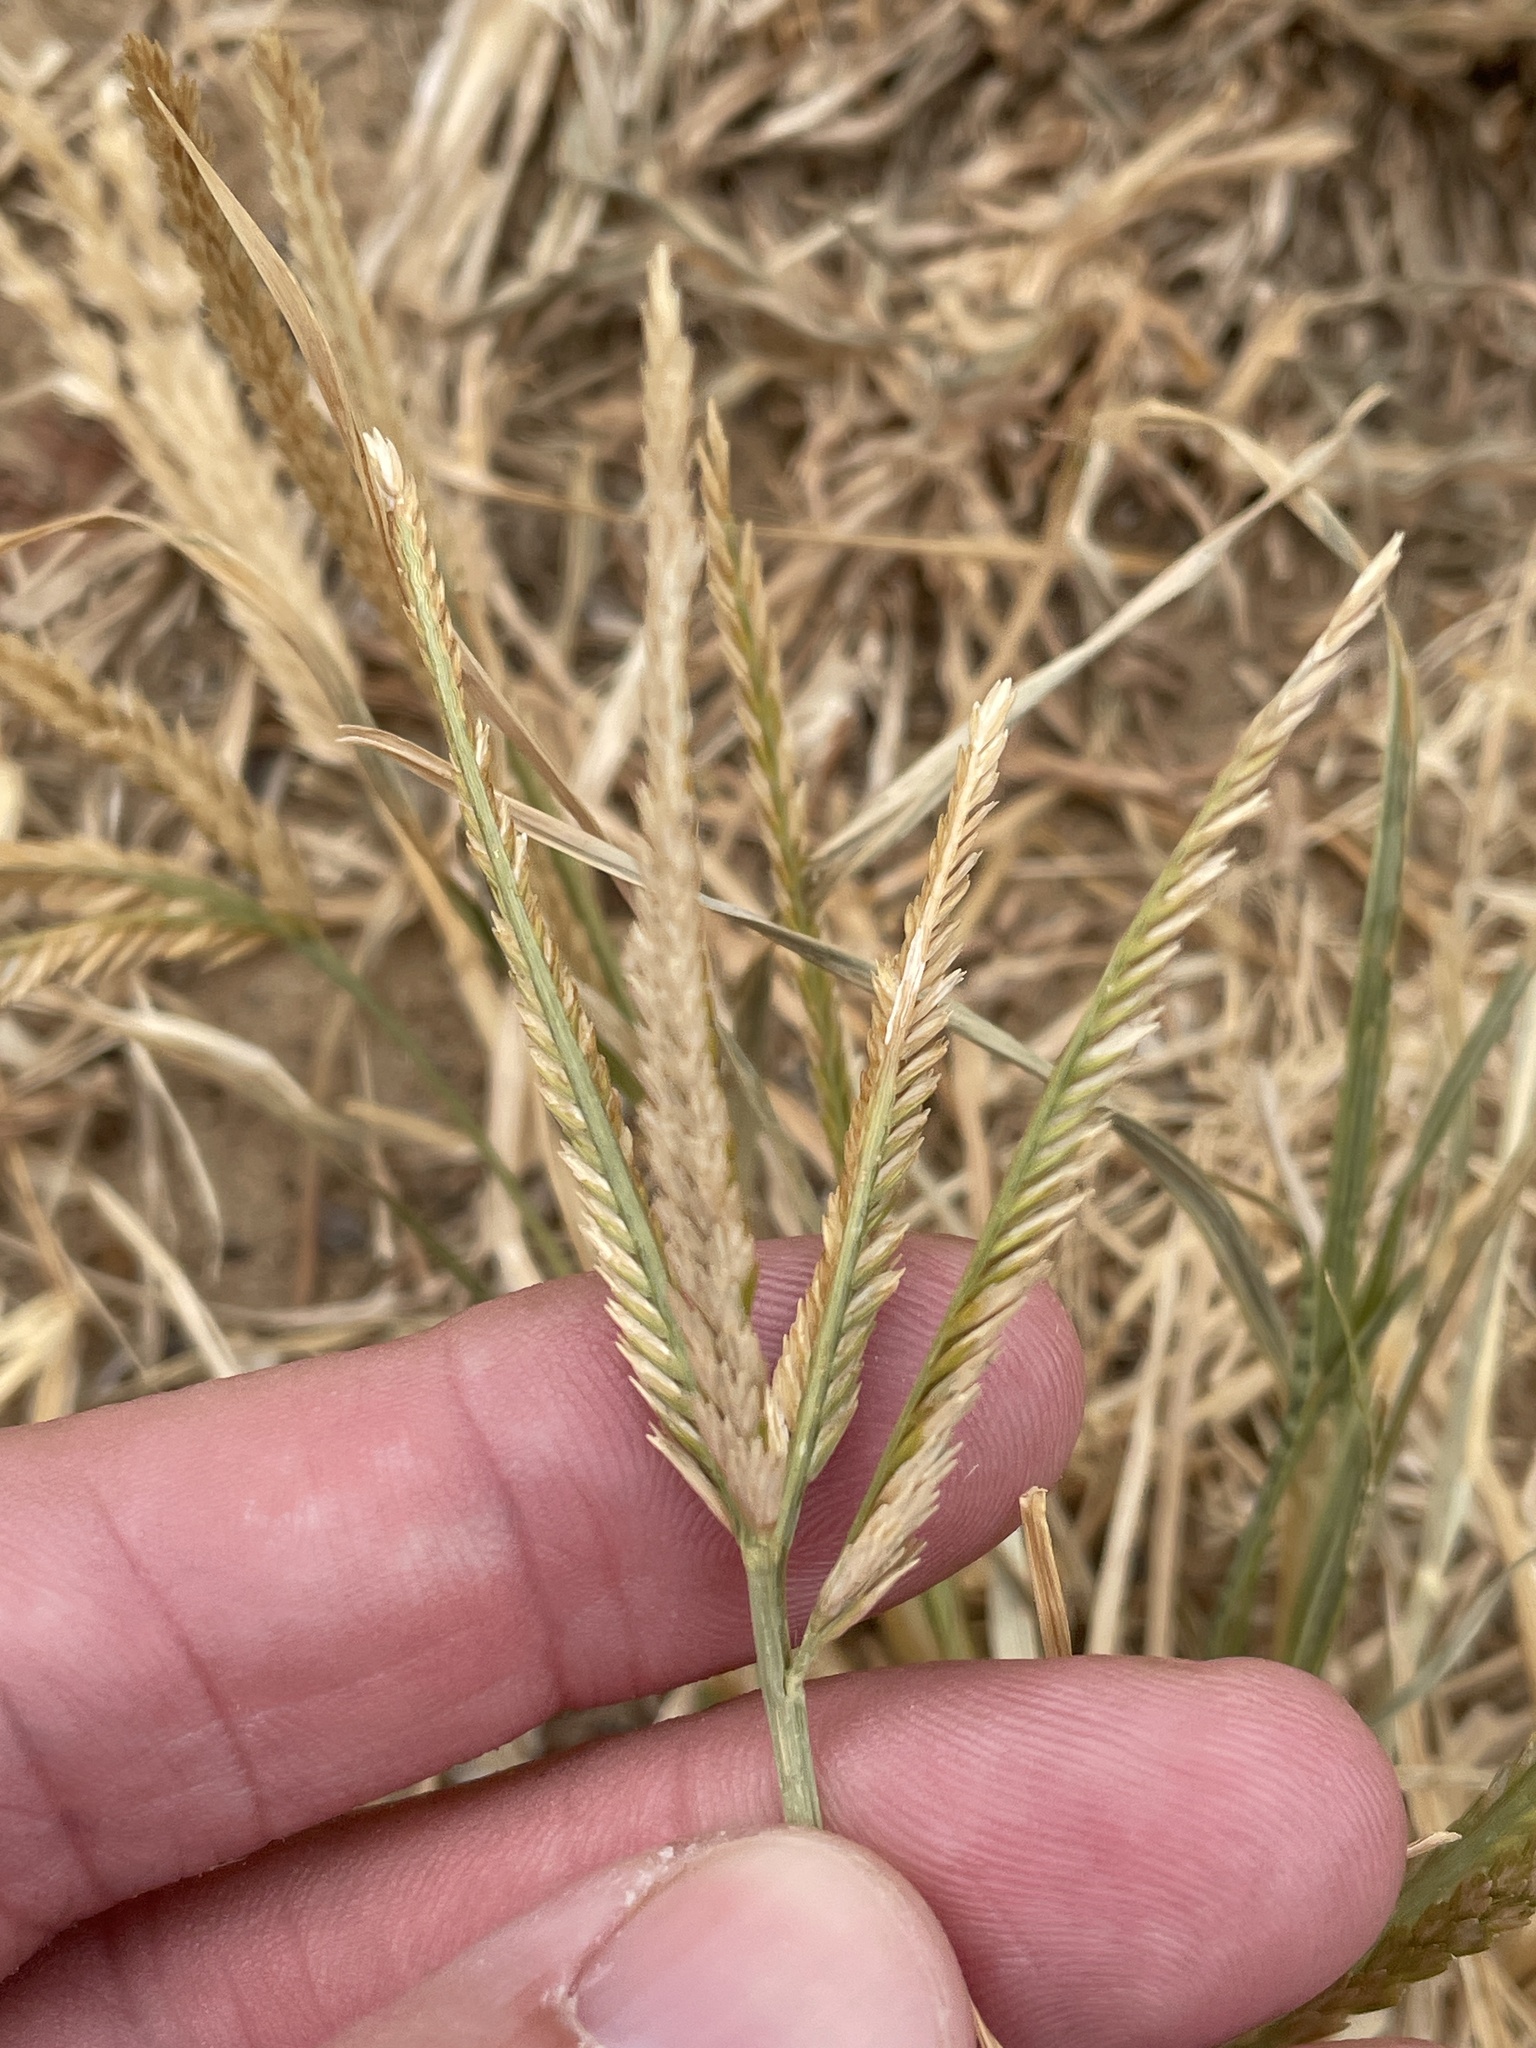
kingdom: Plantae
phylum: Tracheophyta
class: Liliopsida
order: Poales
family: Poaceae
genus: Eleusine
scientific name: Eleusine indica
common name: Yard-grass
